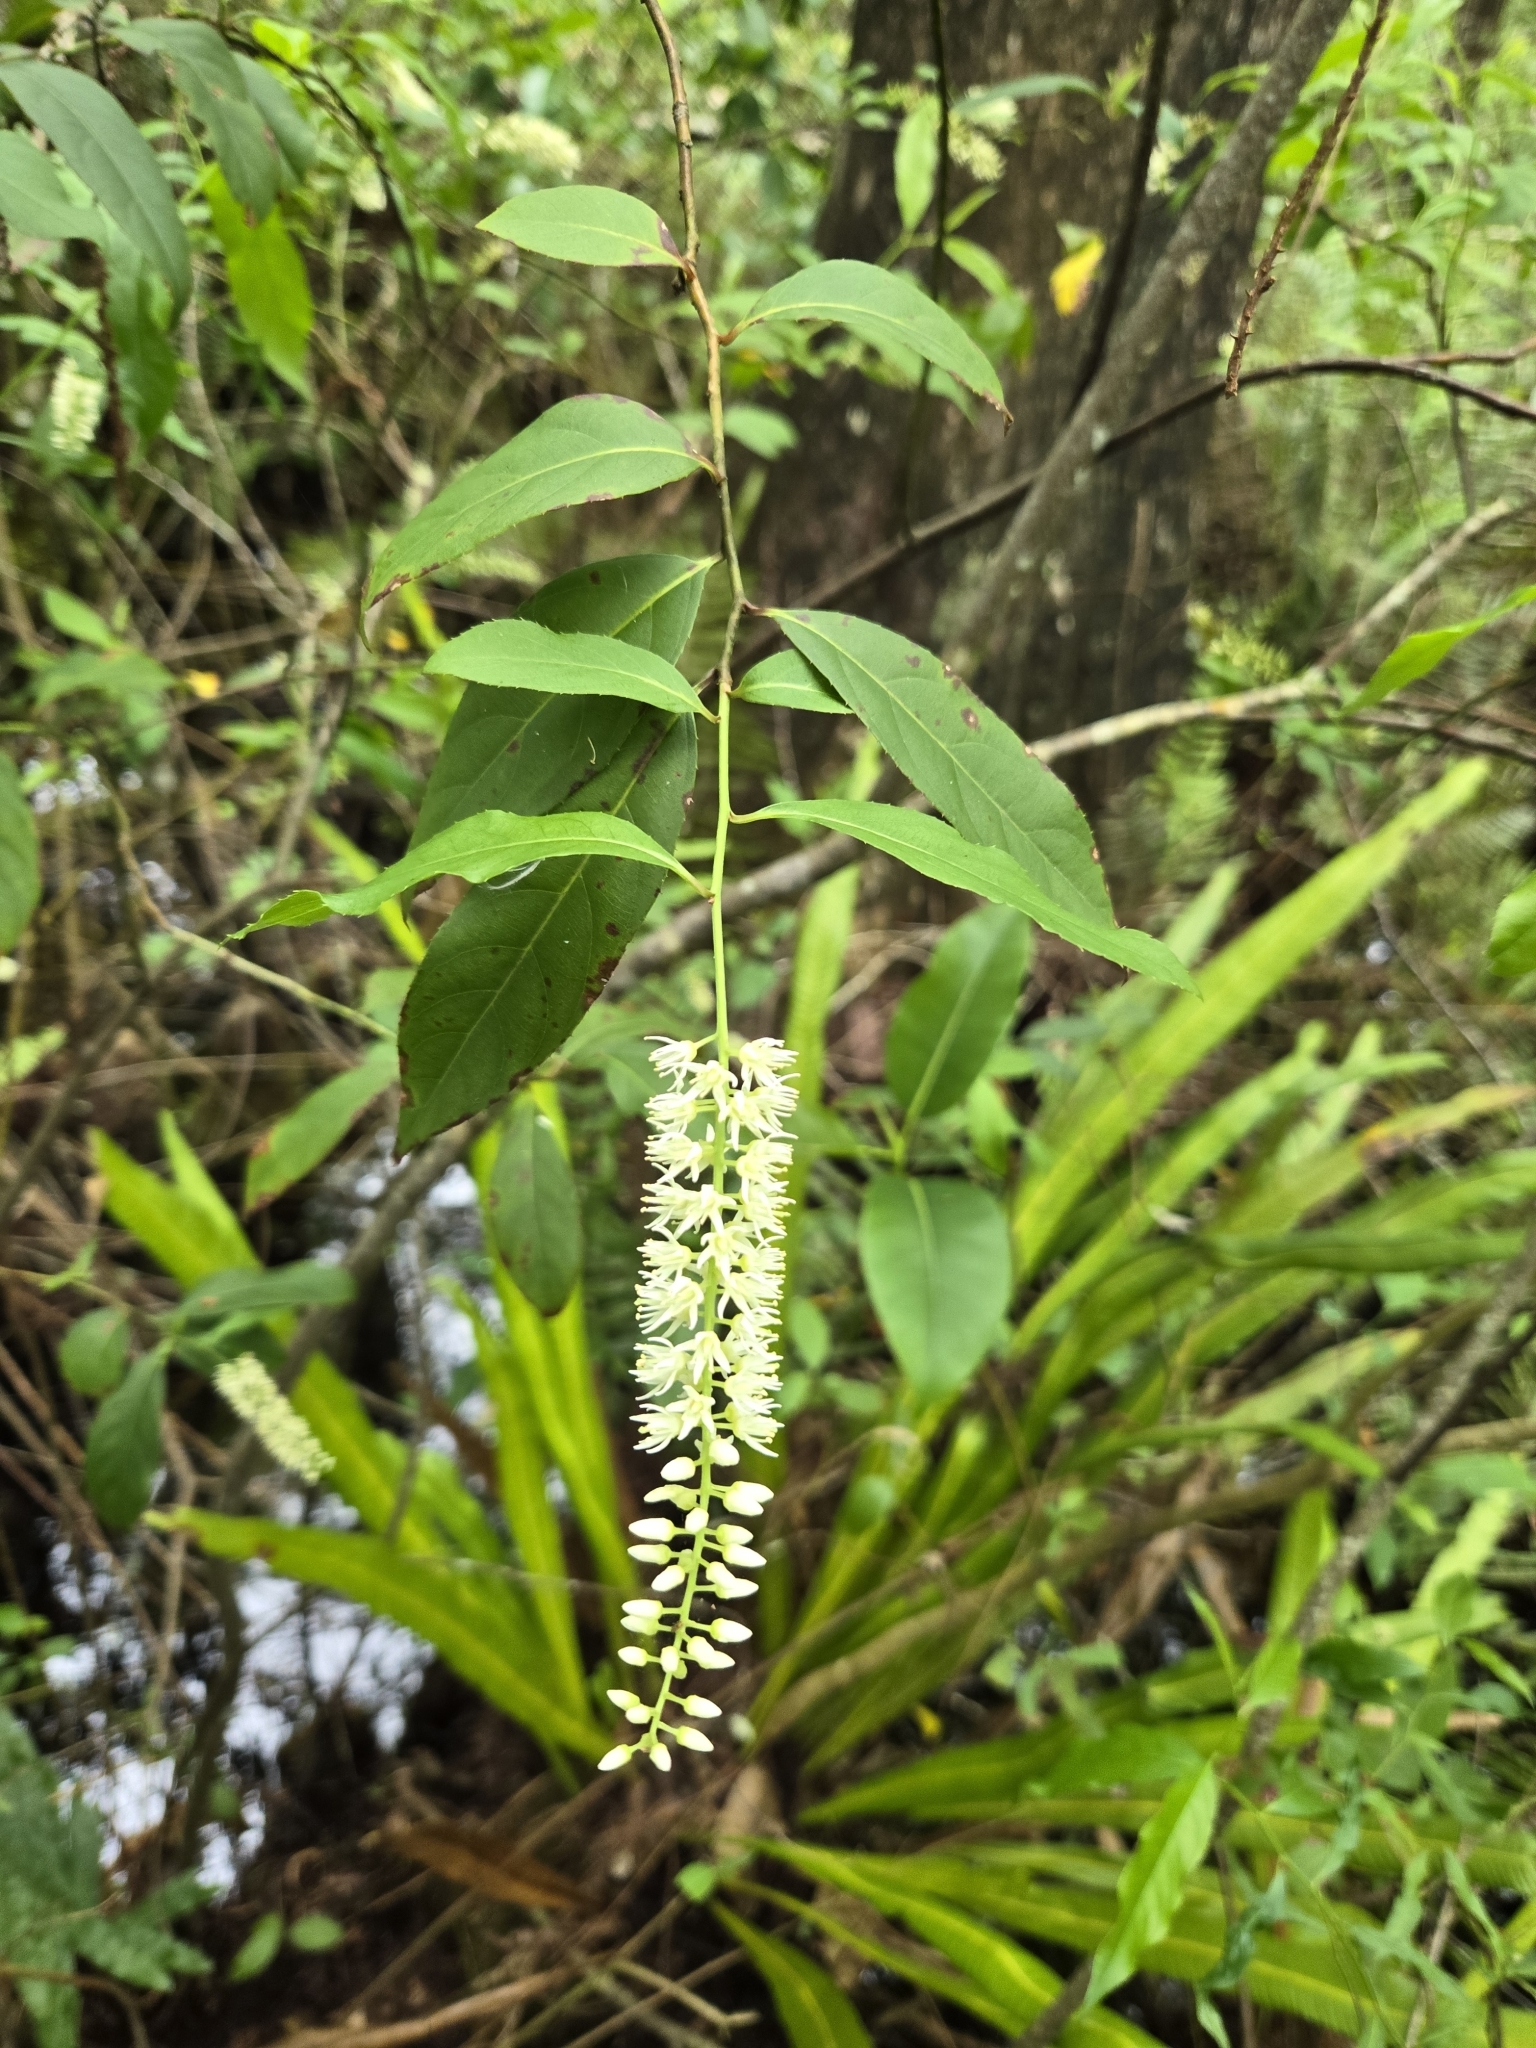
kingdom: Plantae
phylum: Tracheophyta
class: Magnoliopsida
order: Saxifragales
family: Iteaceae
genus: Itea
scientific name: Itea virginica
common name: Sweetspire
